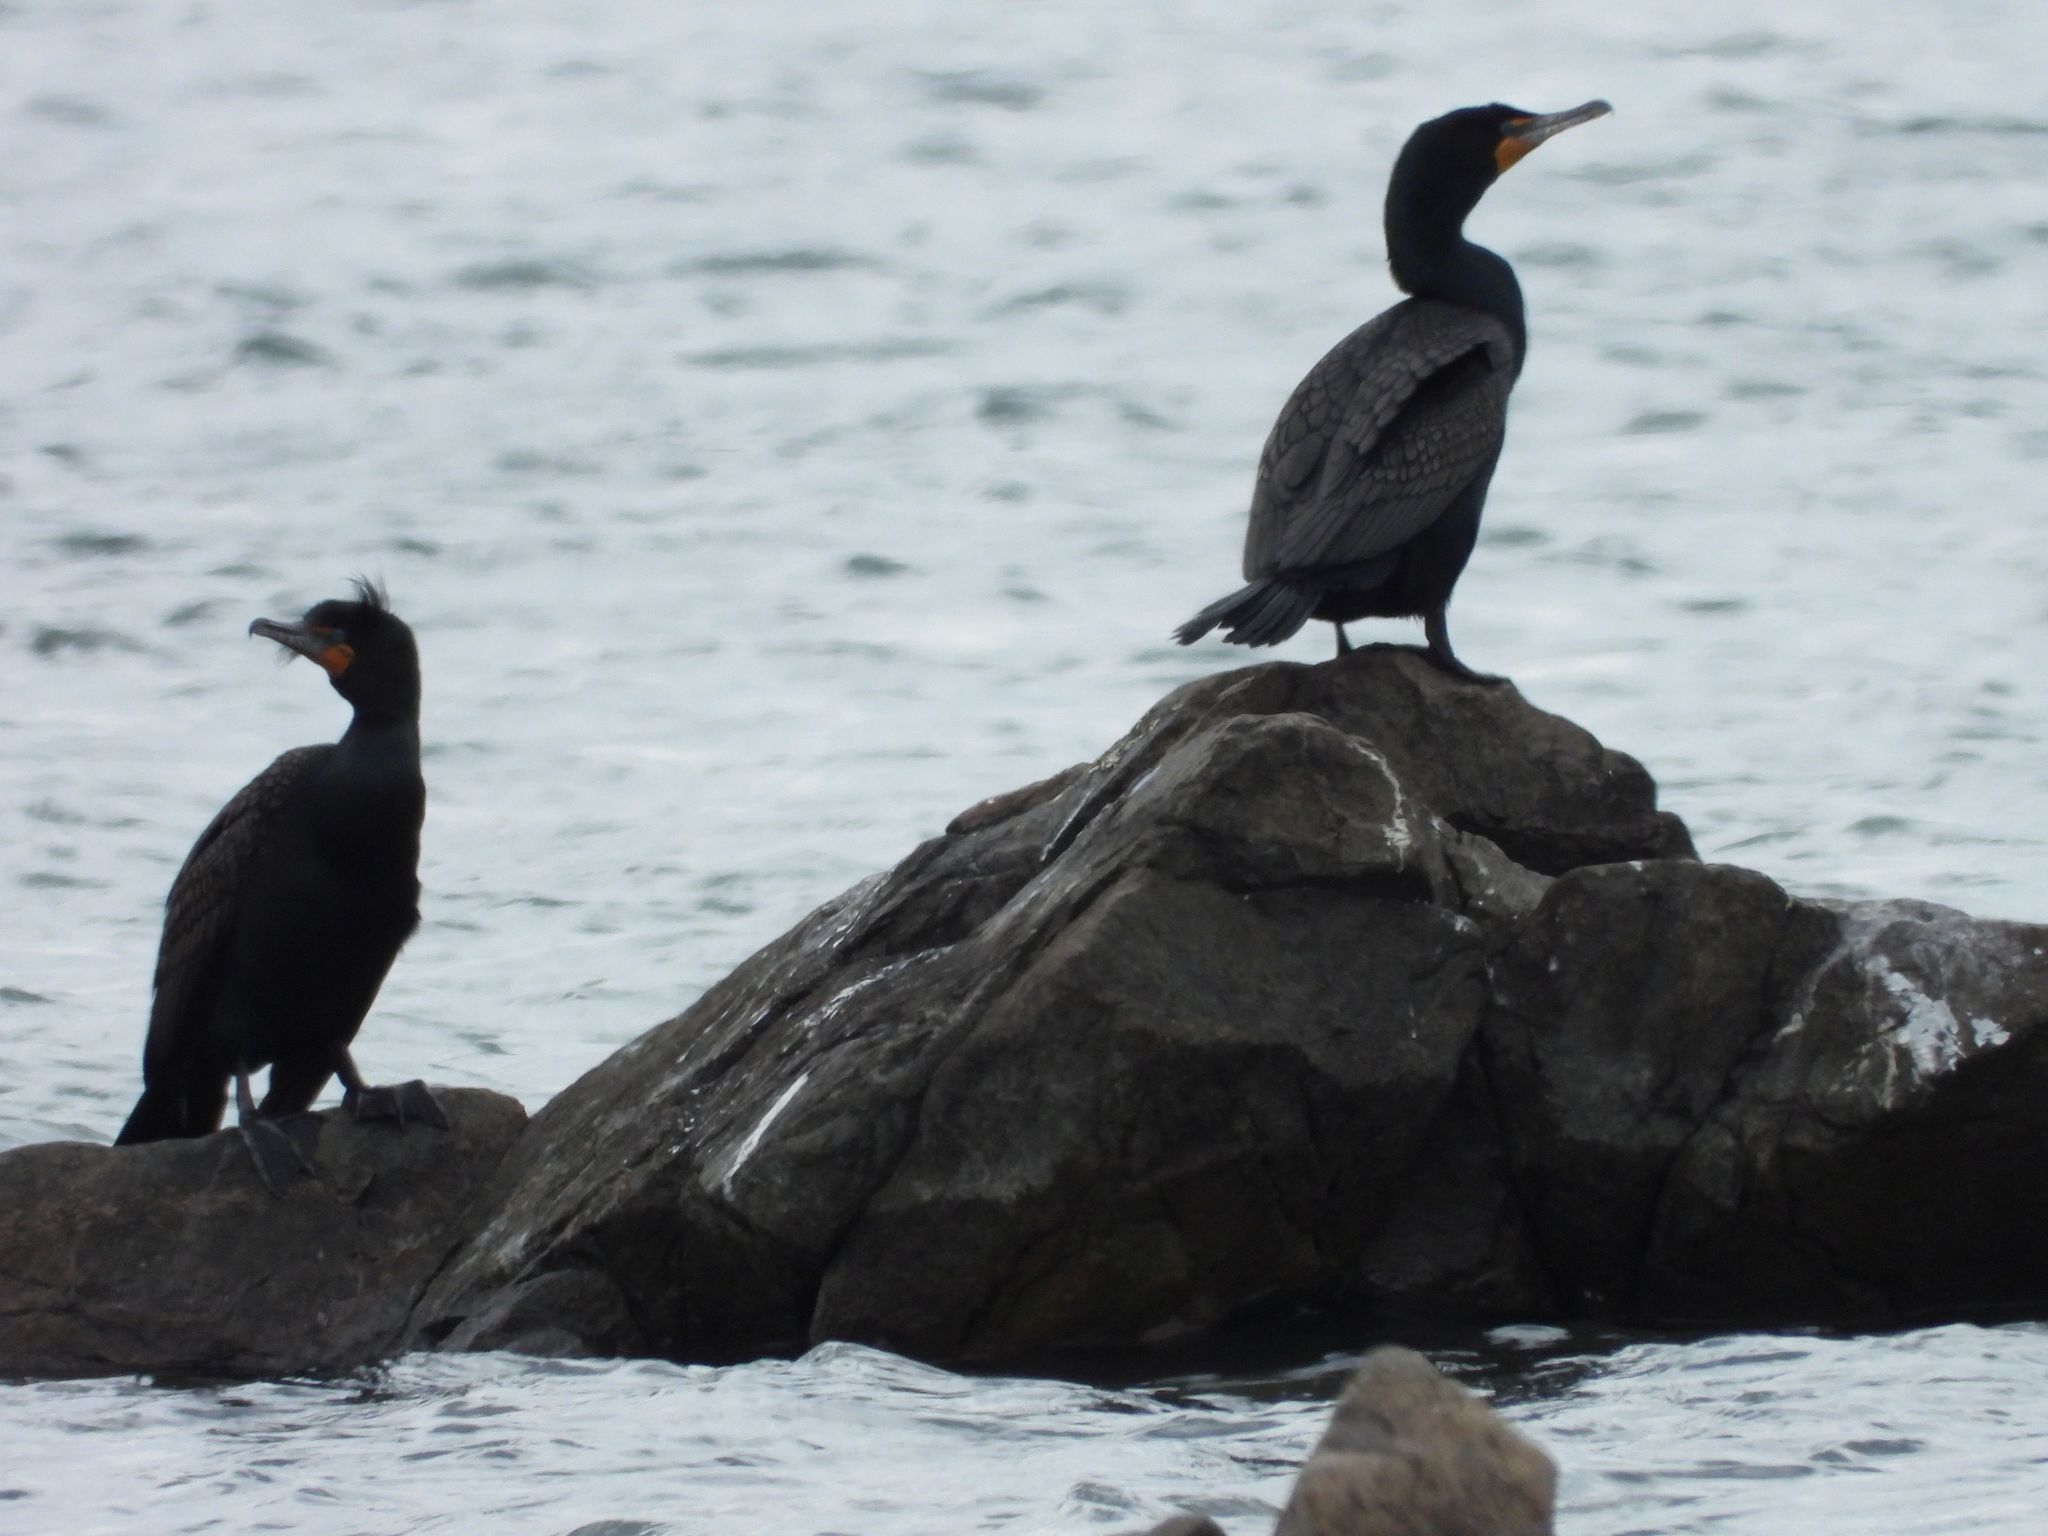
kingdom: Animalia
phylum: Chordata
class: Aves
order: Suliformes
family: Phalacrocoracidae
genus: Phalacrocorax
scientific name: Phalacrocorax auritus
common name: Double-crested cormorant
